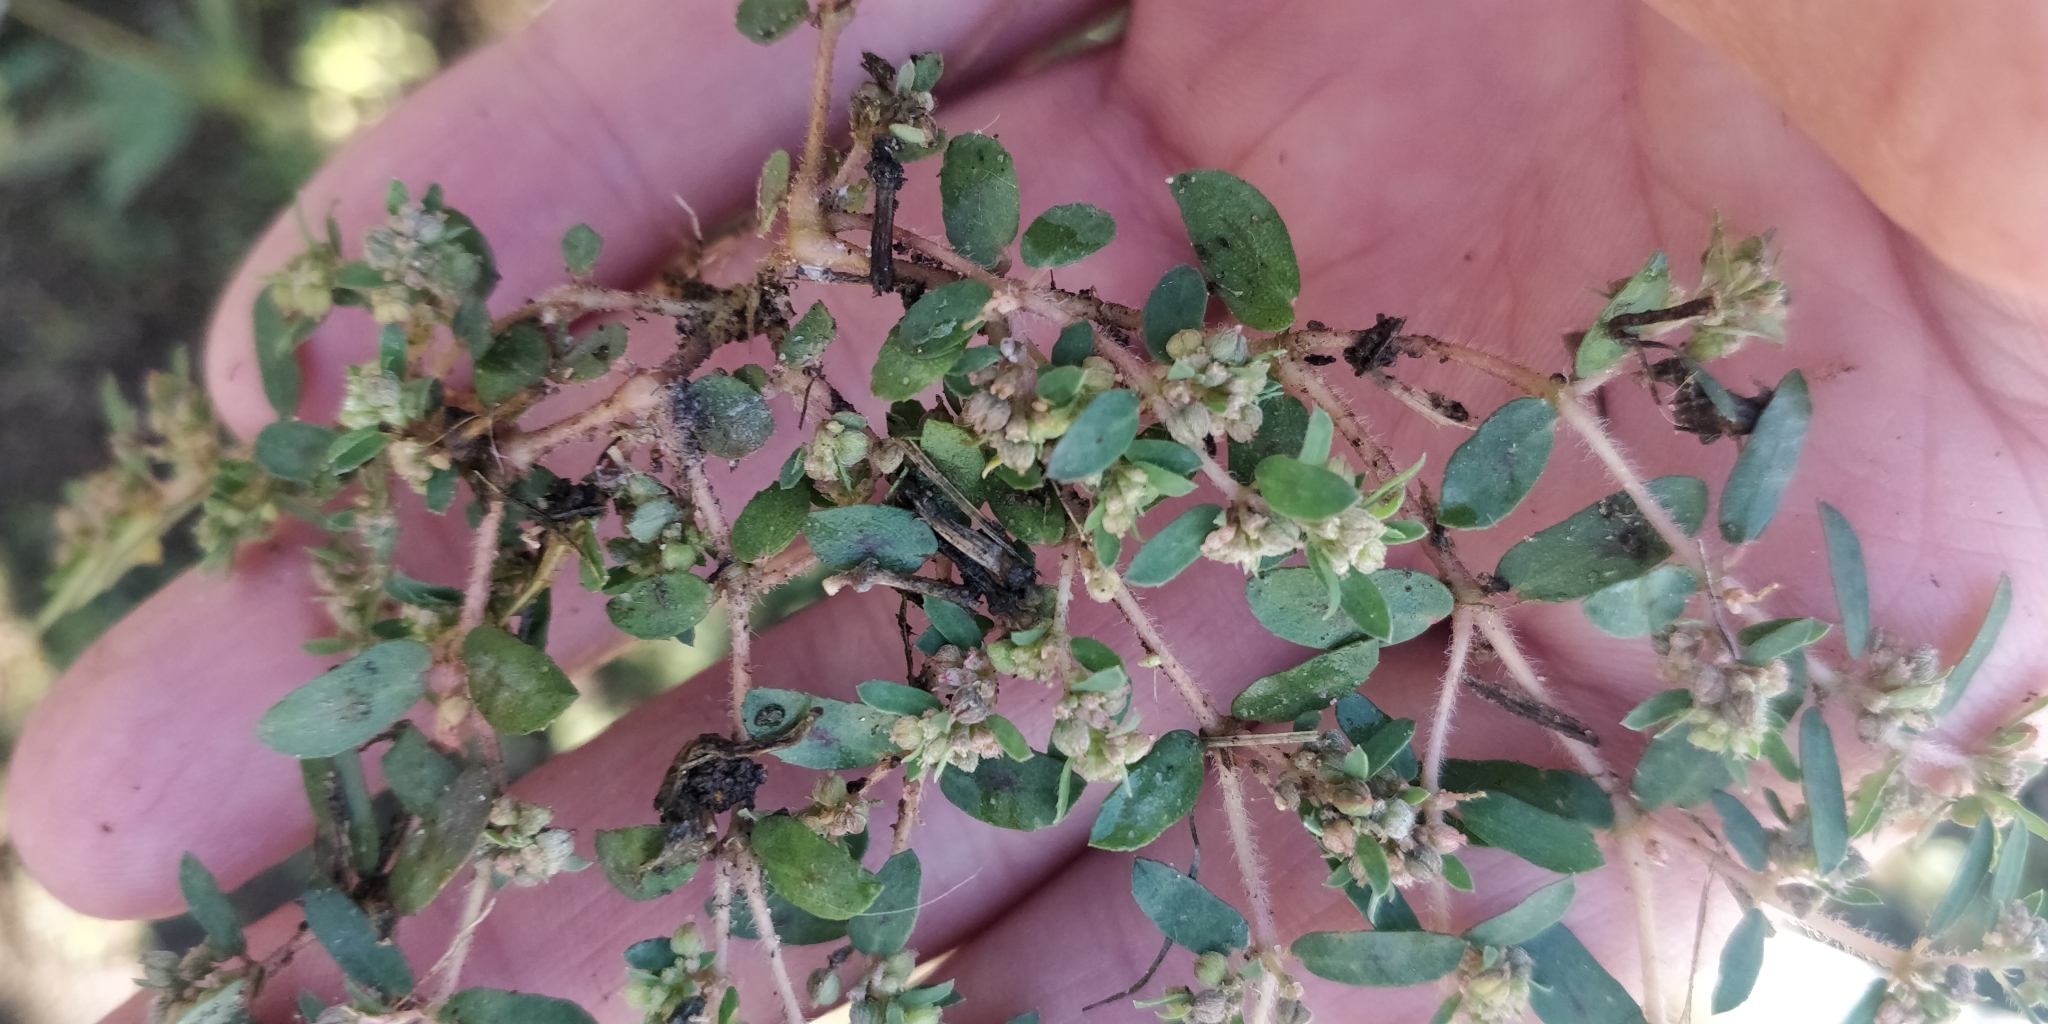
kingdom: Plantae
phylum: Tracheophyta
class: Magnoliopsida
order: Malpighiales
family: Euphorbiaceae
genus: Euphorbia
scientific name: Euphorbia maculata
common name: Spotted spurge
